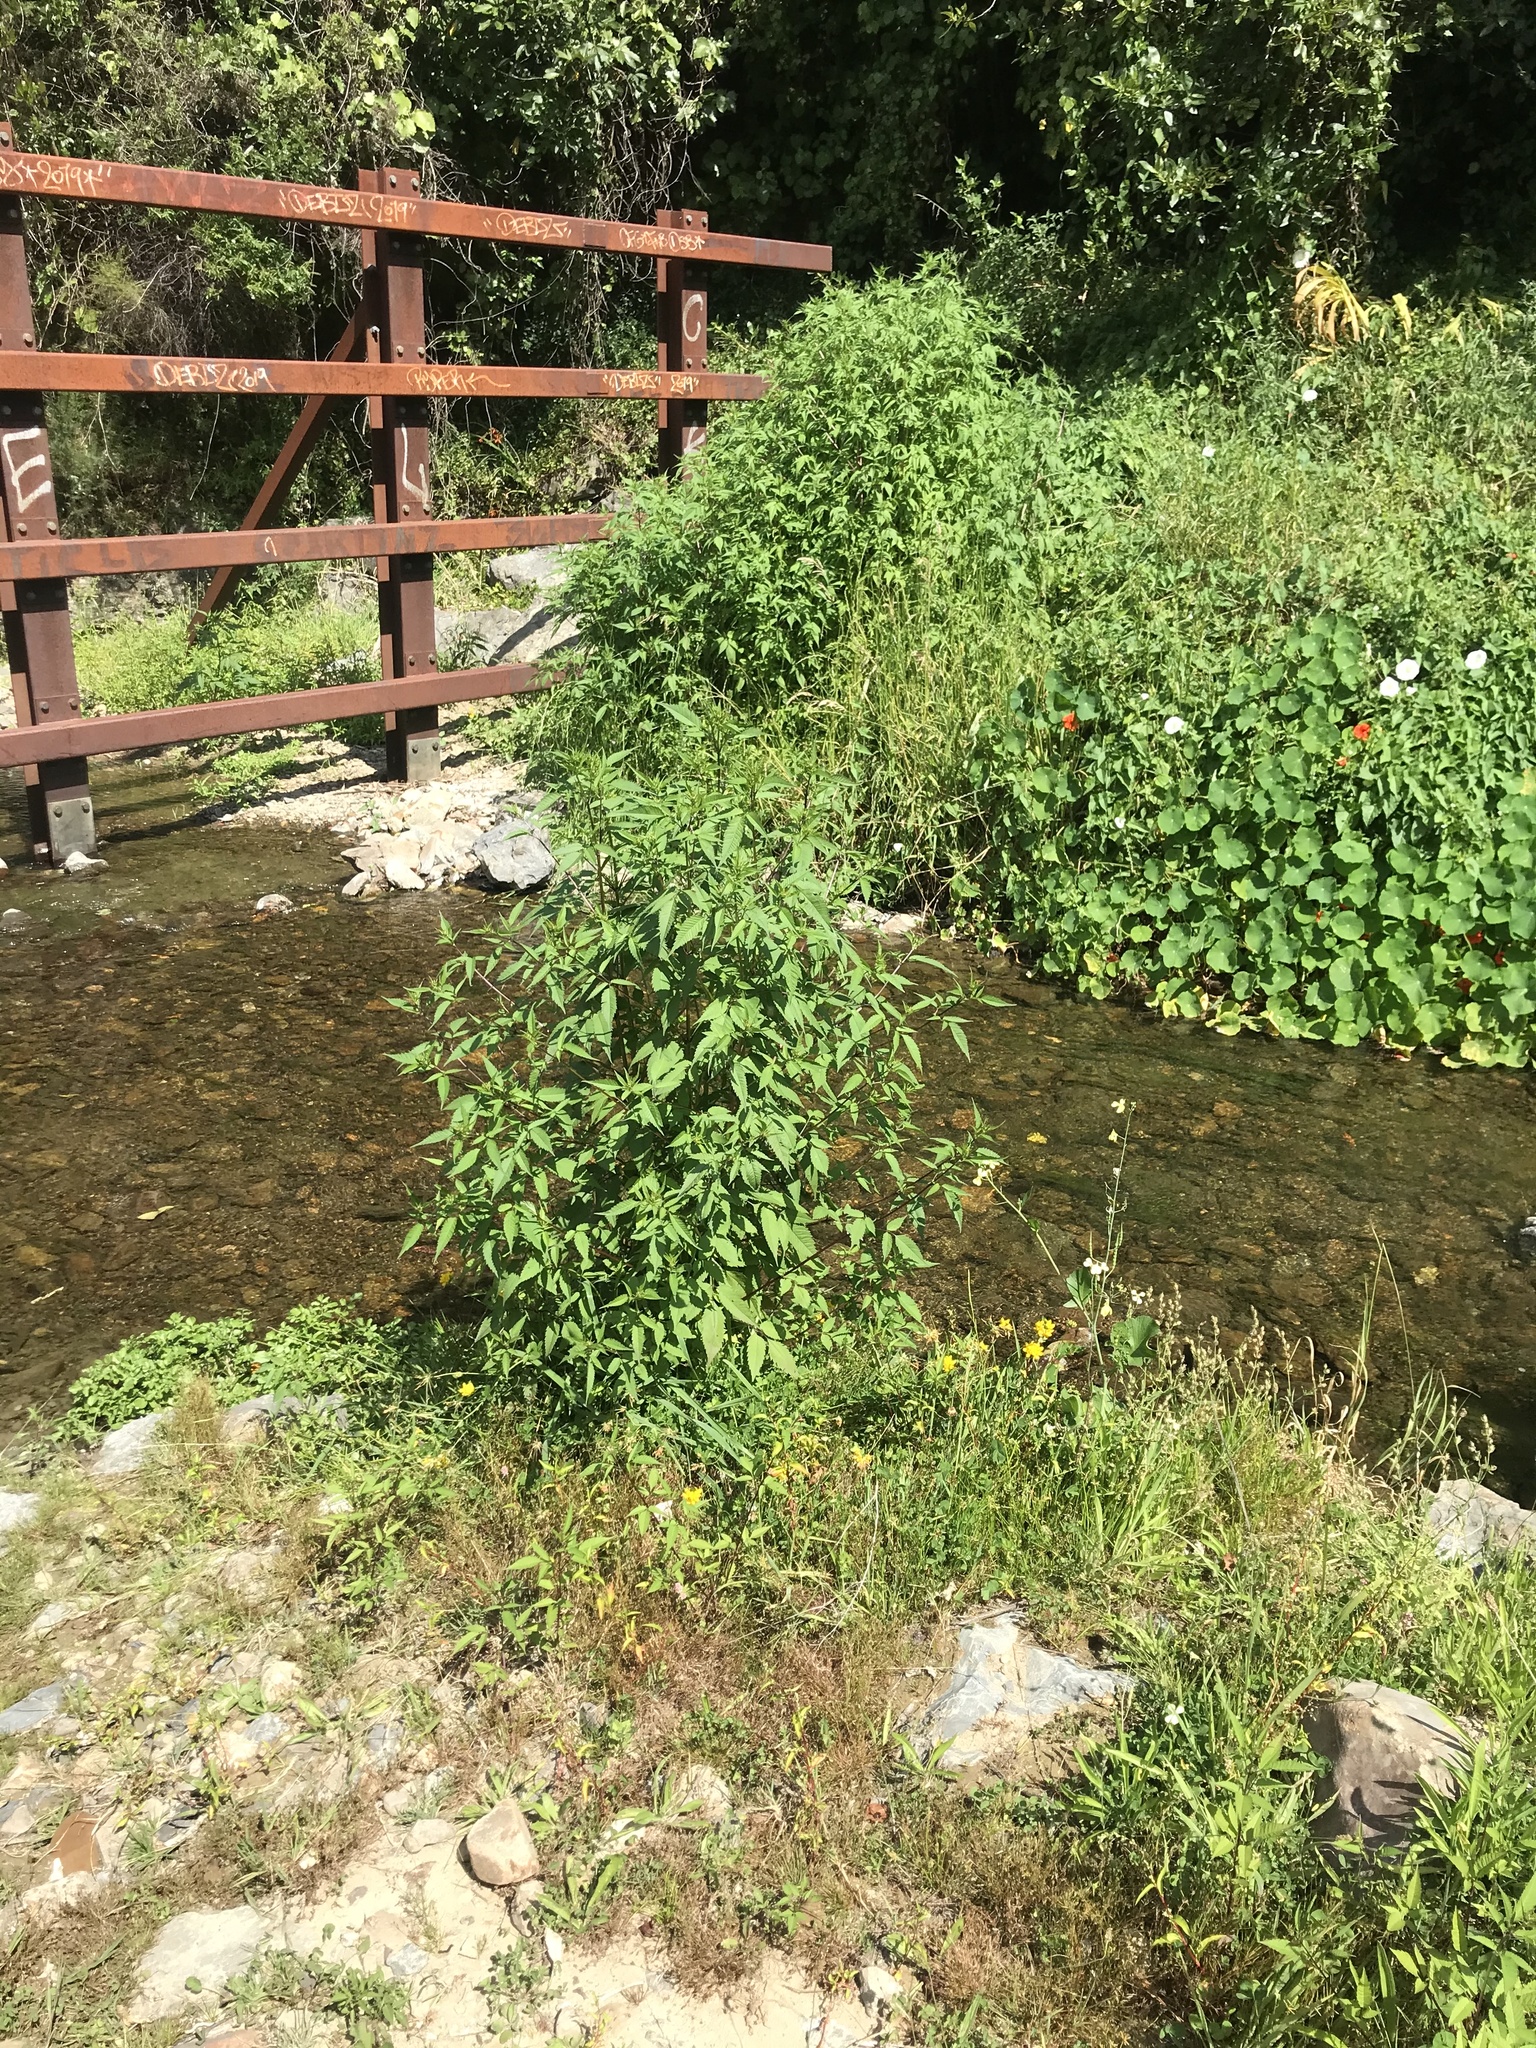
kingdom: Plantae
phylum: Tracheophyta
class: Magnoliopsida
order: Asterales
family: Asteraceae
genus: Bidens
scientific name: Bidens frondosa
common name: Beggarticks
